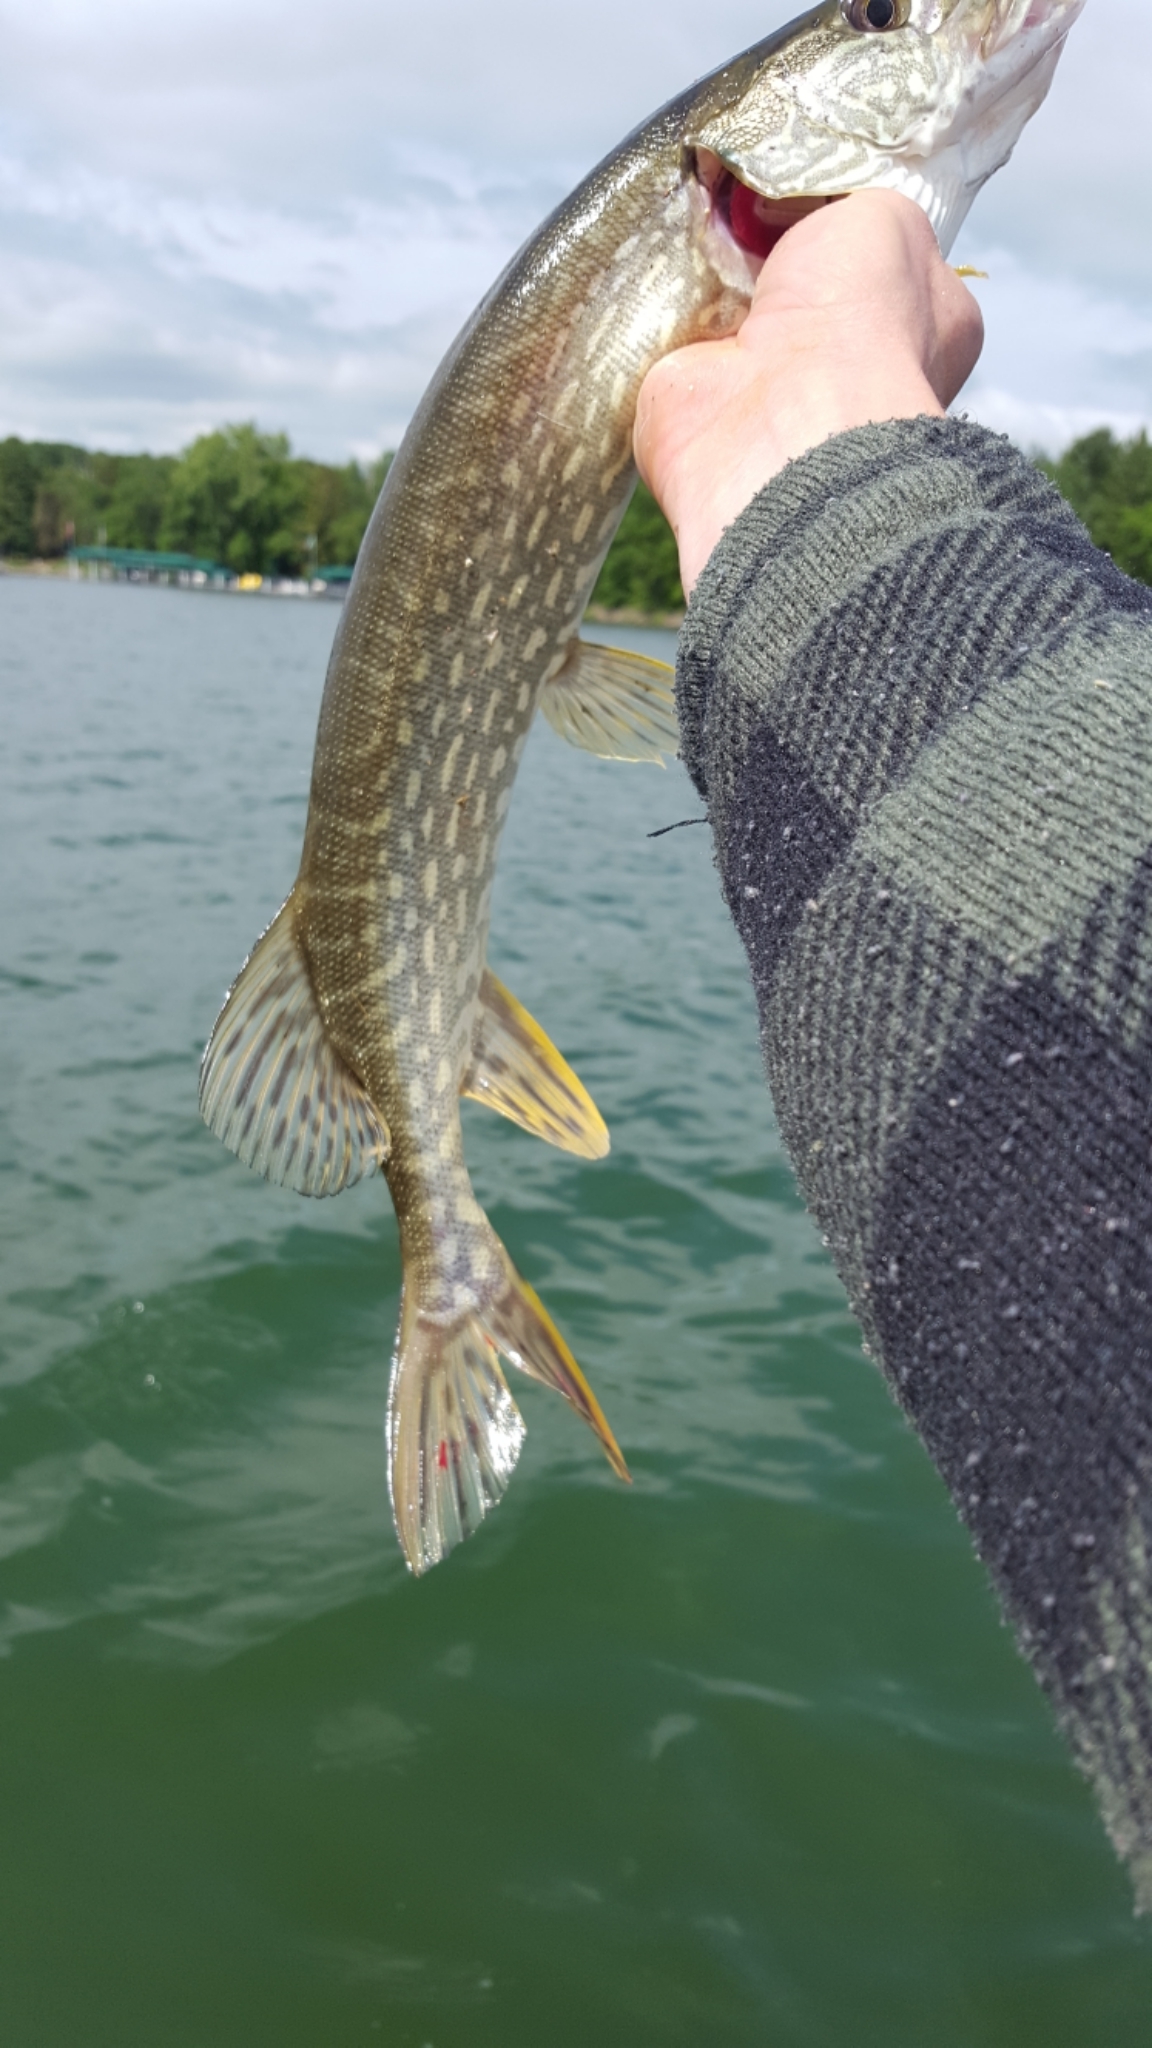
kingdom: Animalia
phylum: Chordata
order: Esociformes
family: Esocidae
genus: Esox
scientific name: Esox lucius
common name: Northern pike
